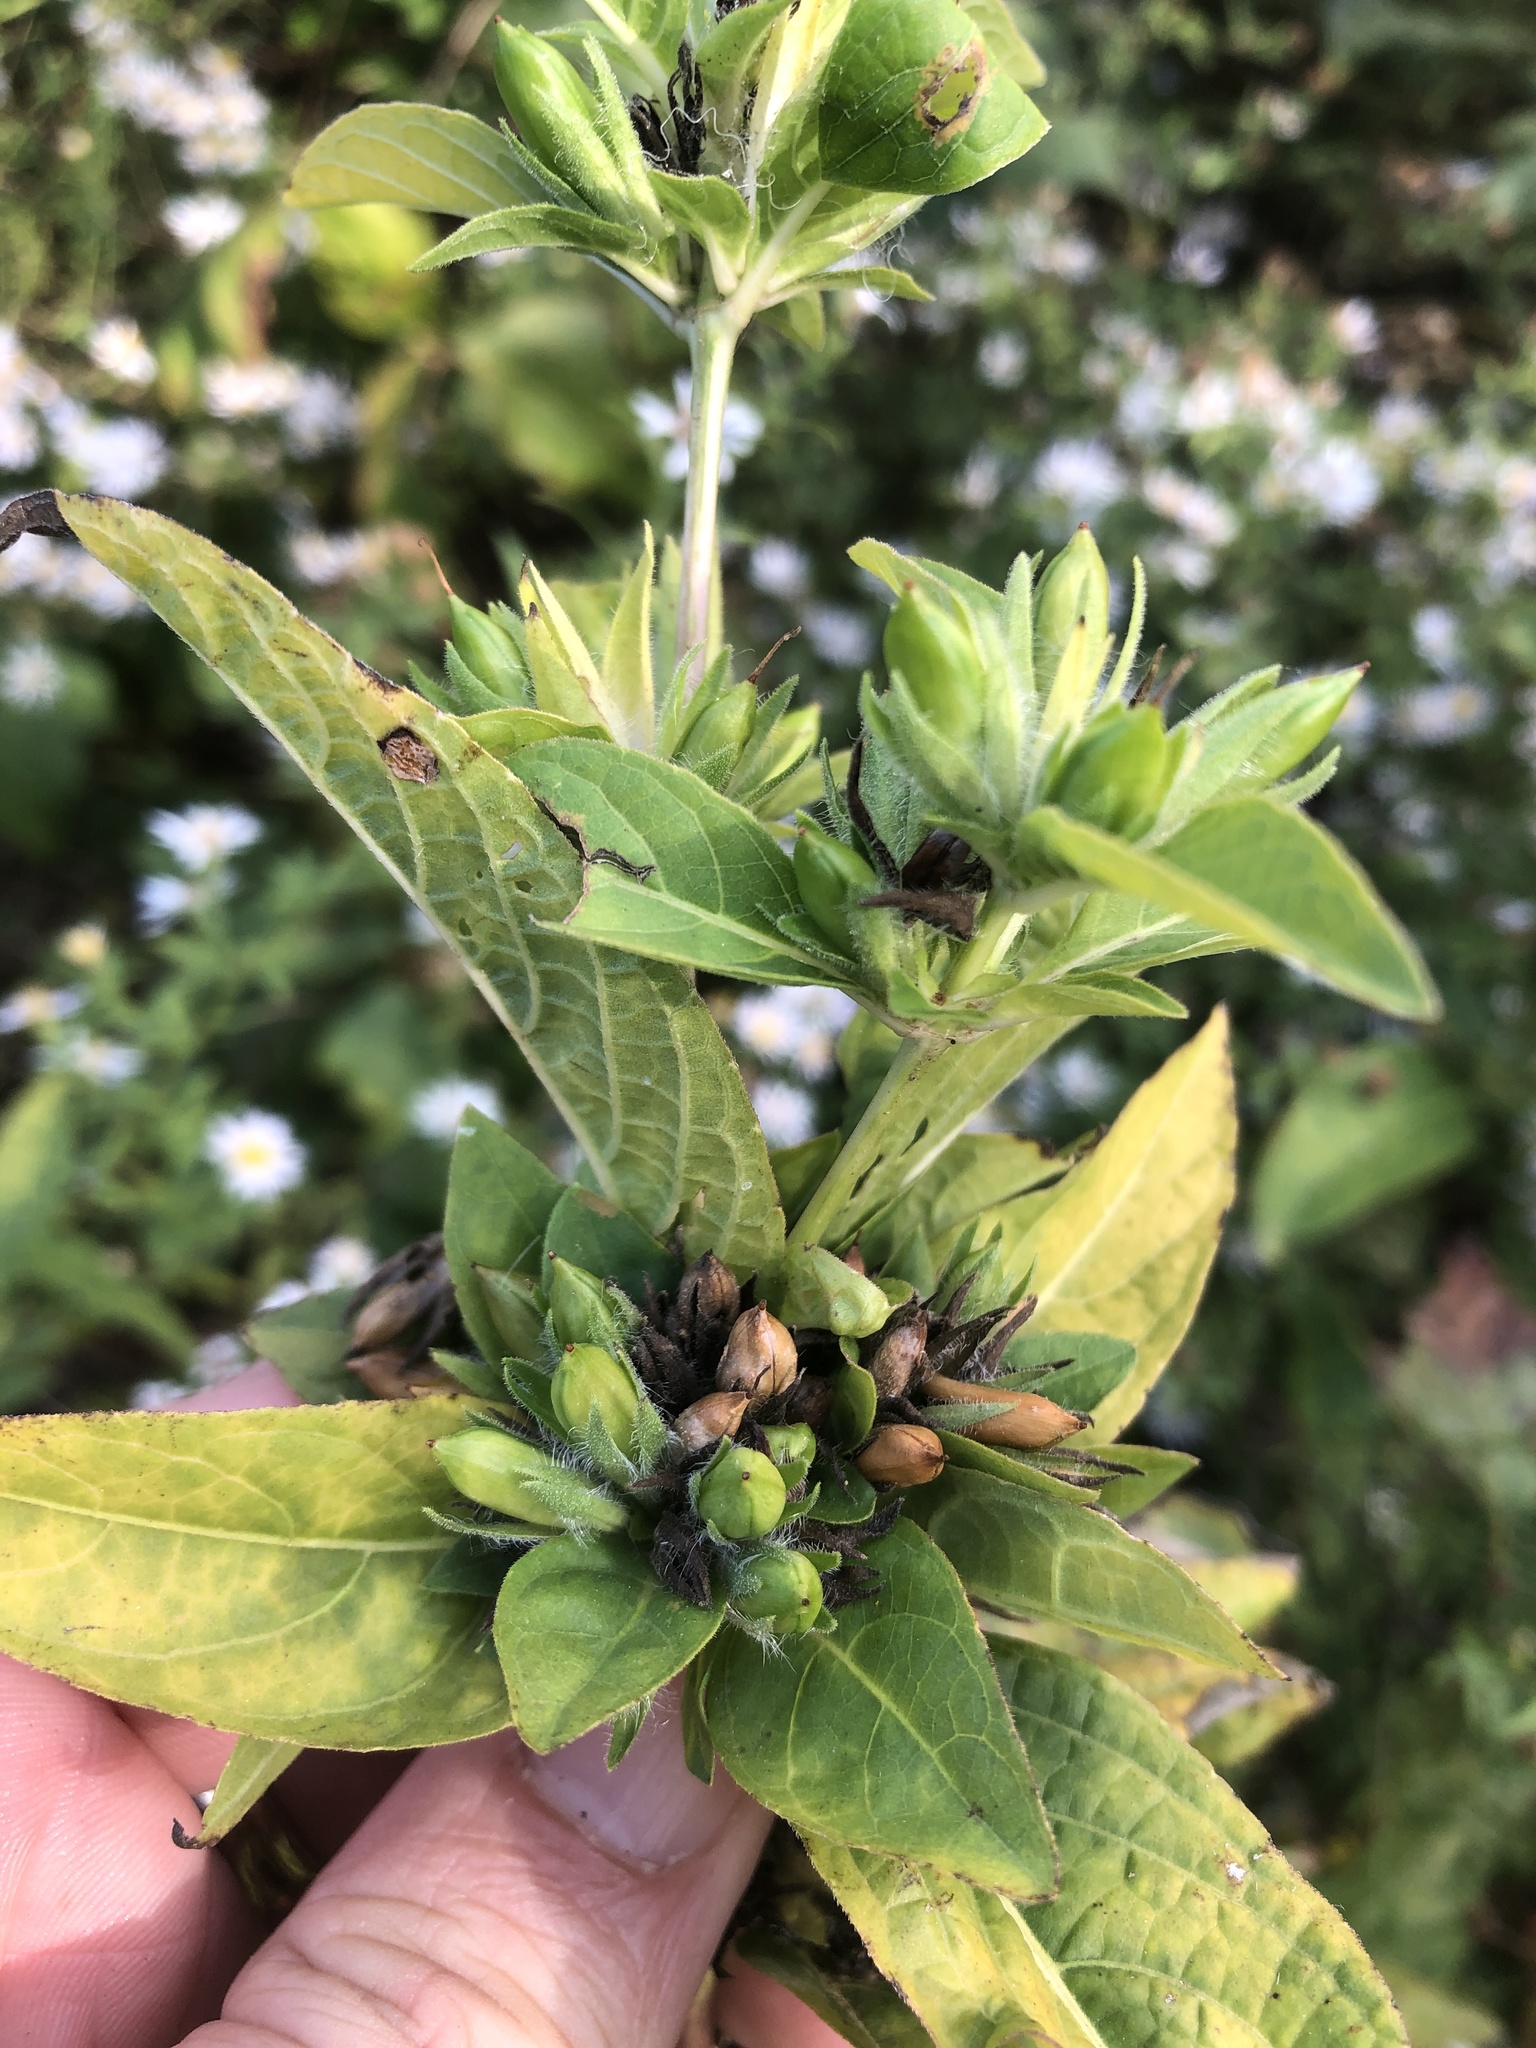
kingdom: Plantae
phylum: Tracheophyta
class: Magnoliopsida
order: Lamiales
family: Acanthaceae
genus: Ruellia
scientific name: Ruellia strepens
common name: Limestone wild petunia
